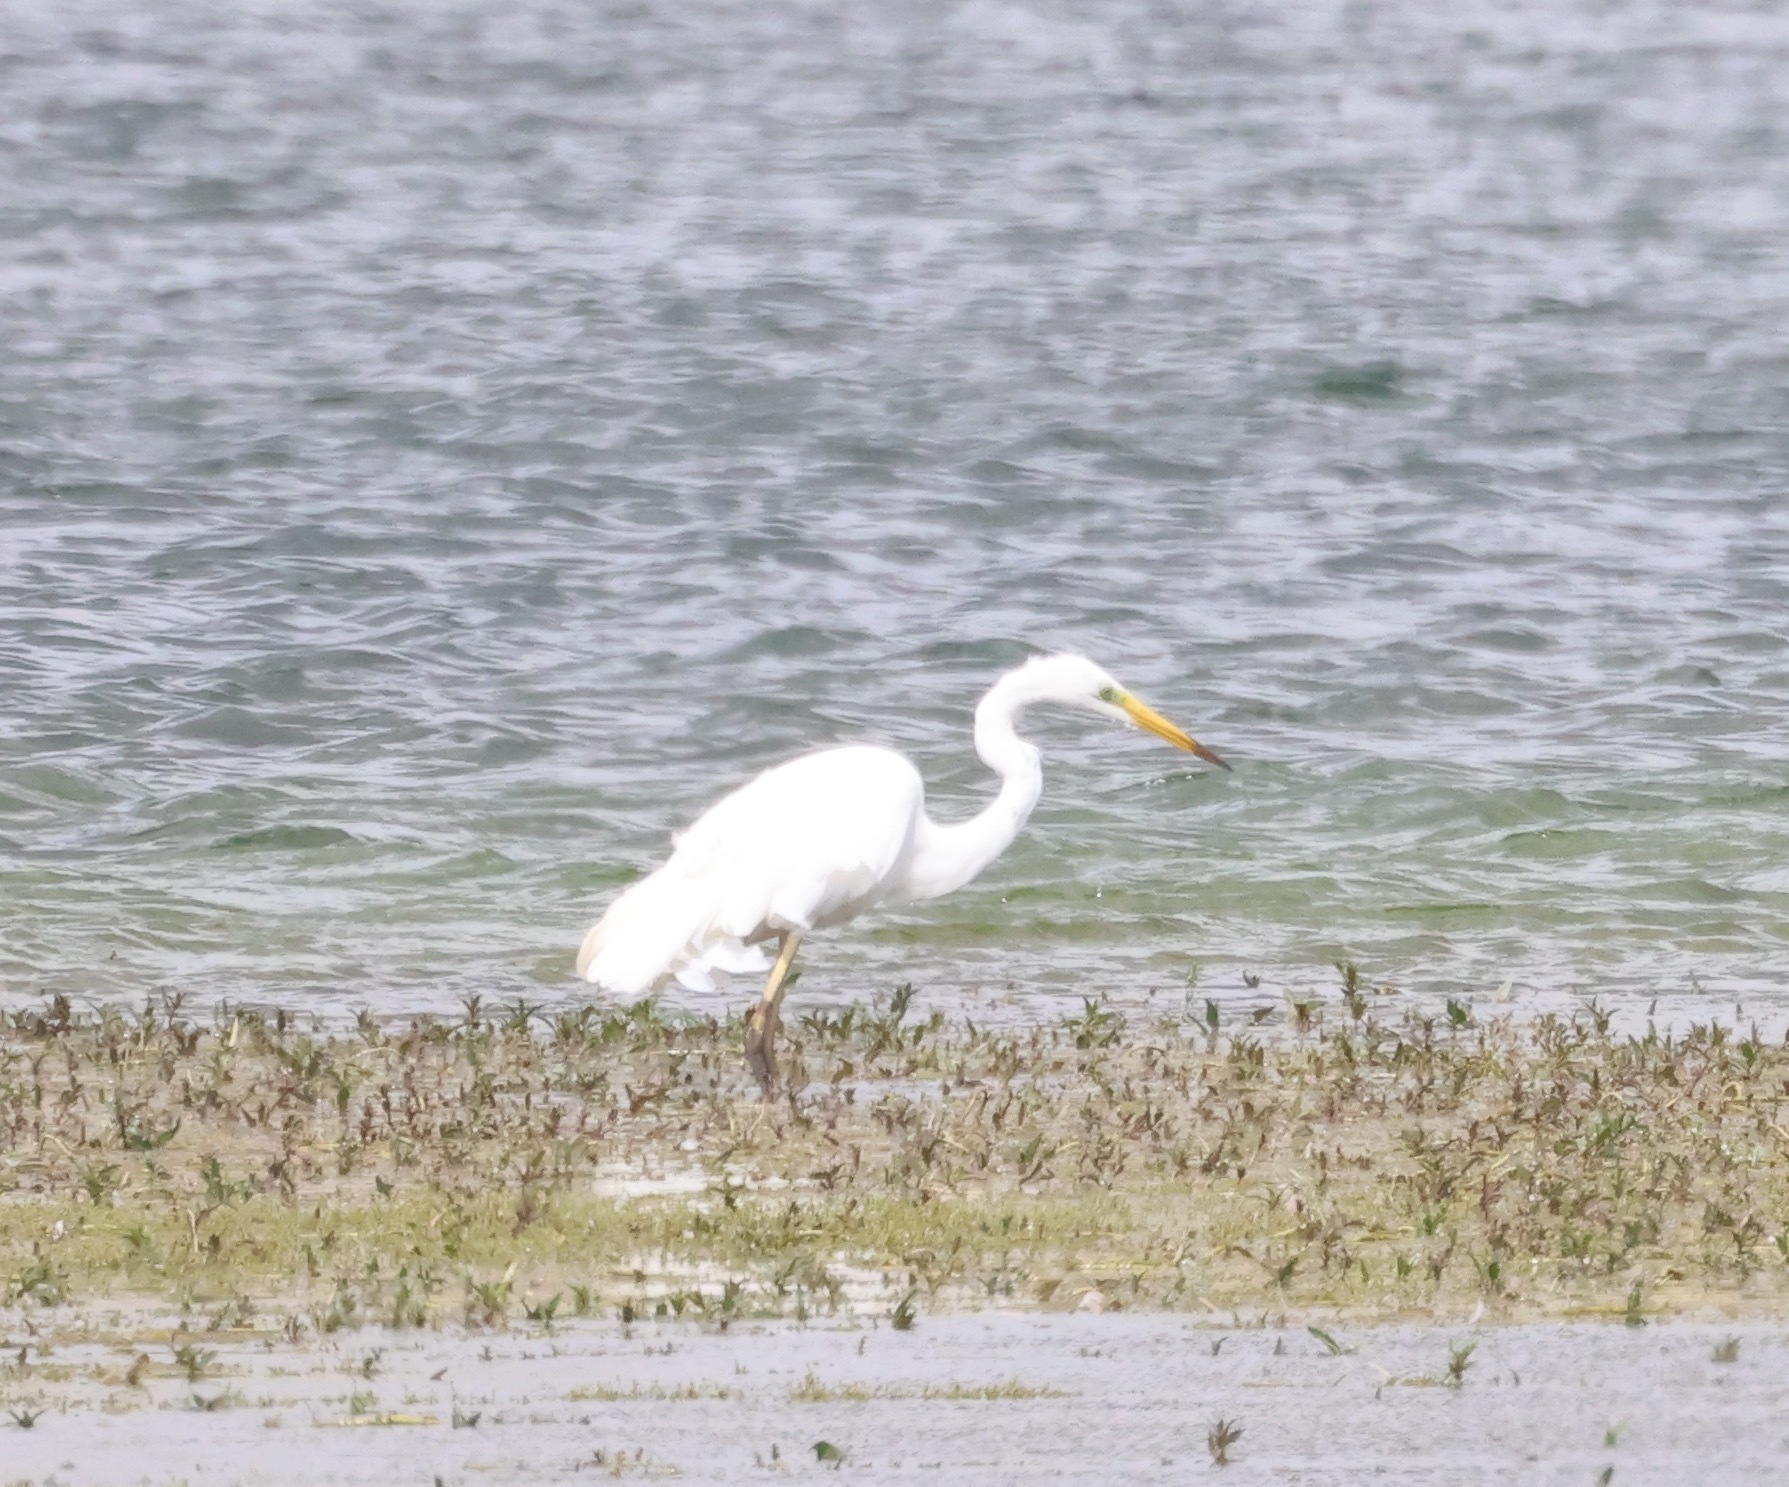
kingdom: Animalia
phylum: Chordata
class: Aves
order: Pelecaniformes
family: Ardeidae
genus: Ardea
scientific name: Ardea alba
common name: Great egret
